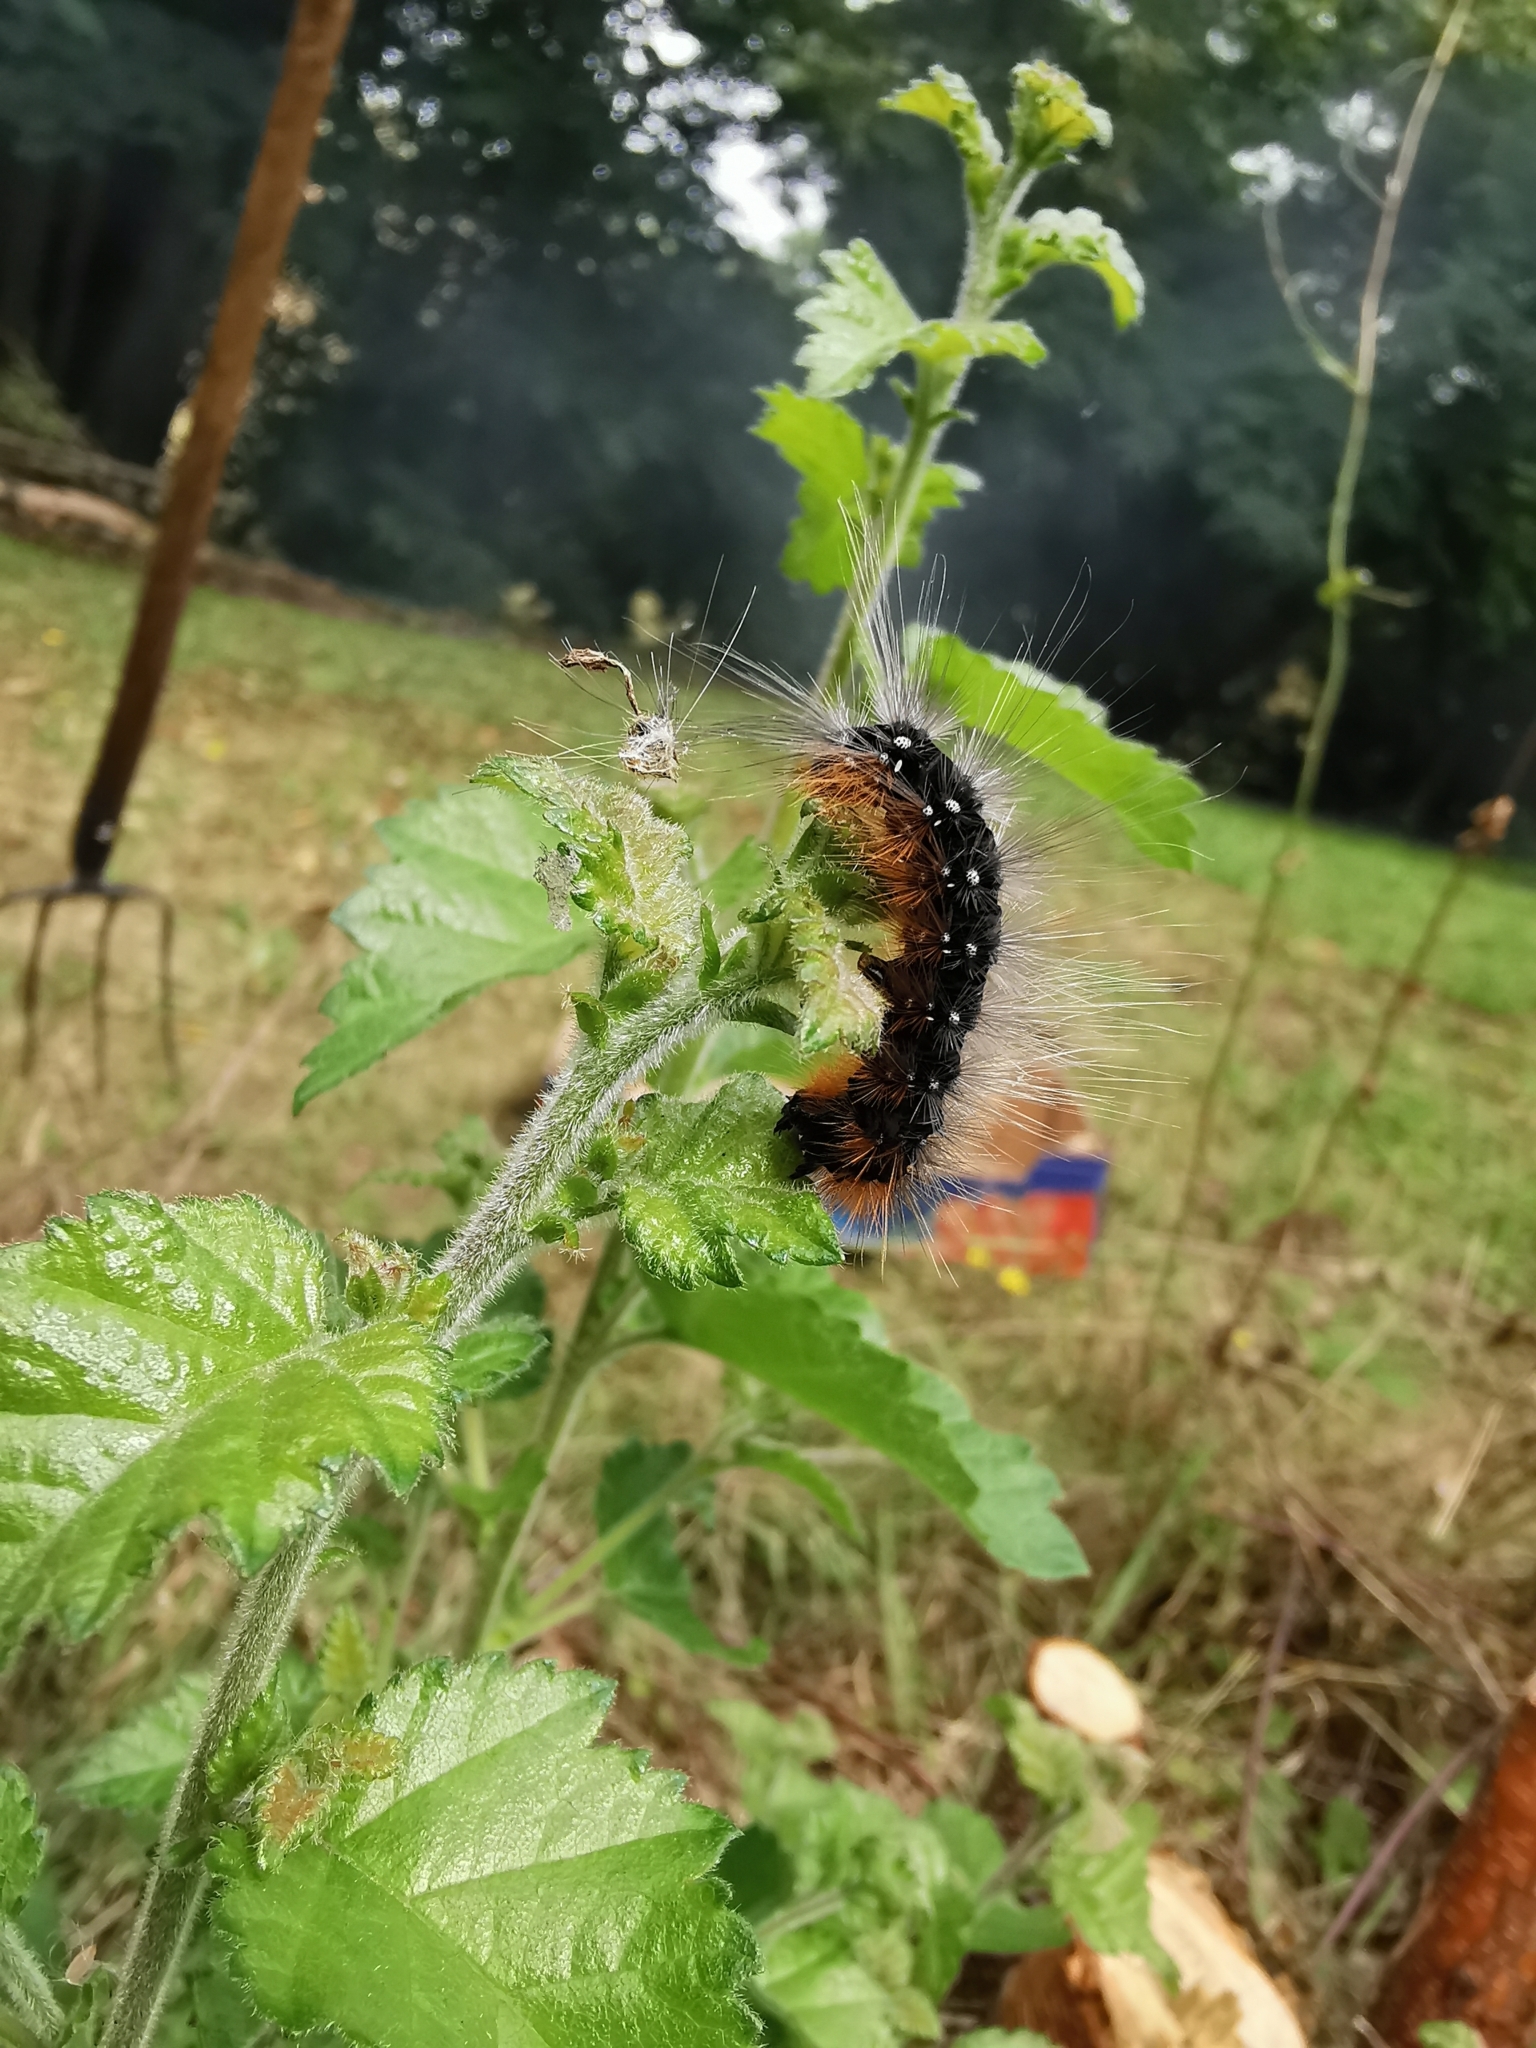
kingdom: Animalia
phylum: Arthropoda
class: Insecta
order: Lepidoptera
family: Erebidae
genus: Arctia
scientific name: Arctia caja
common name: Garden tiger
